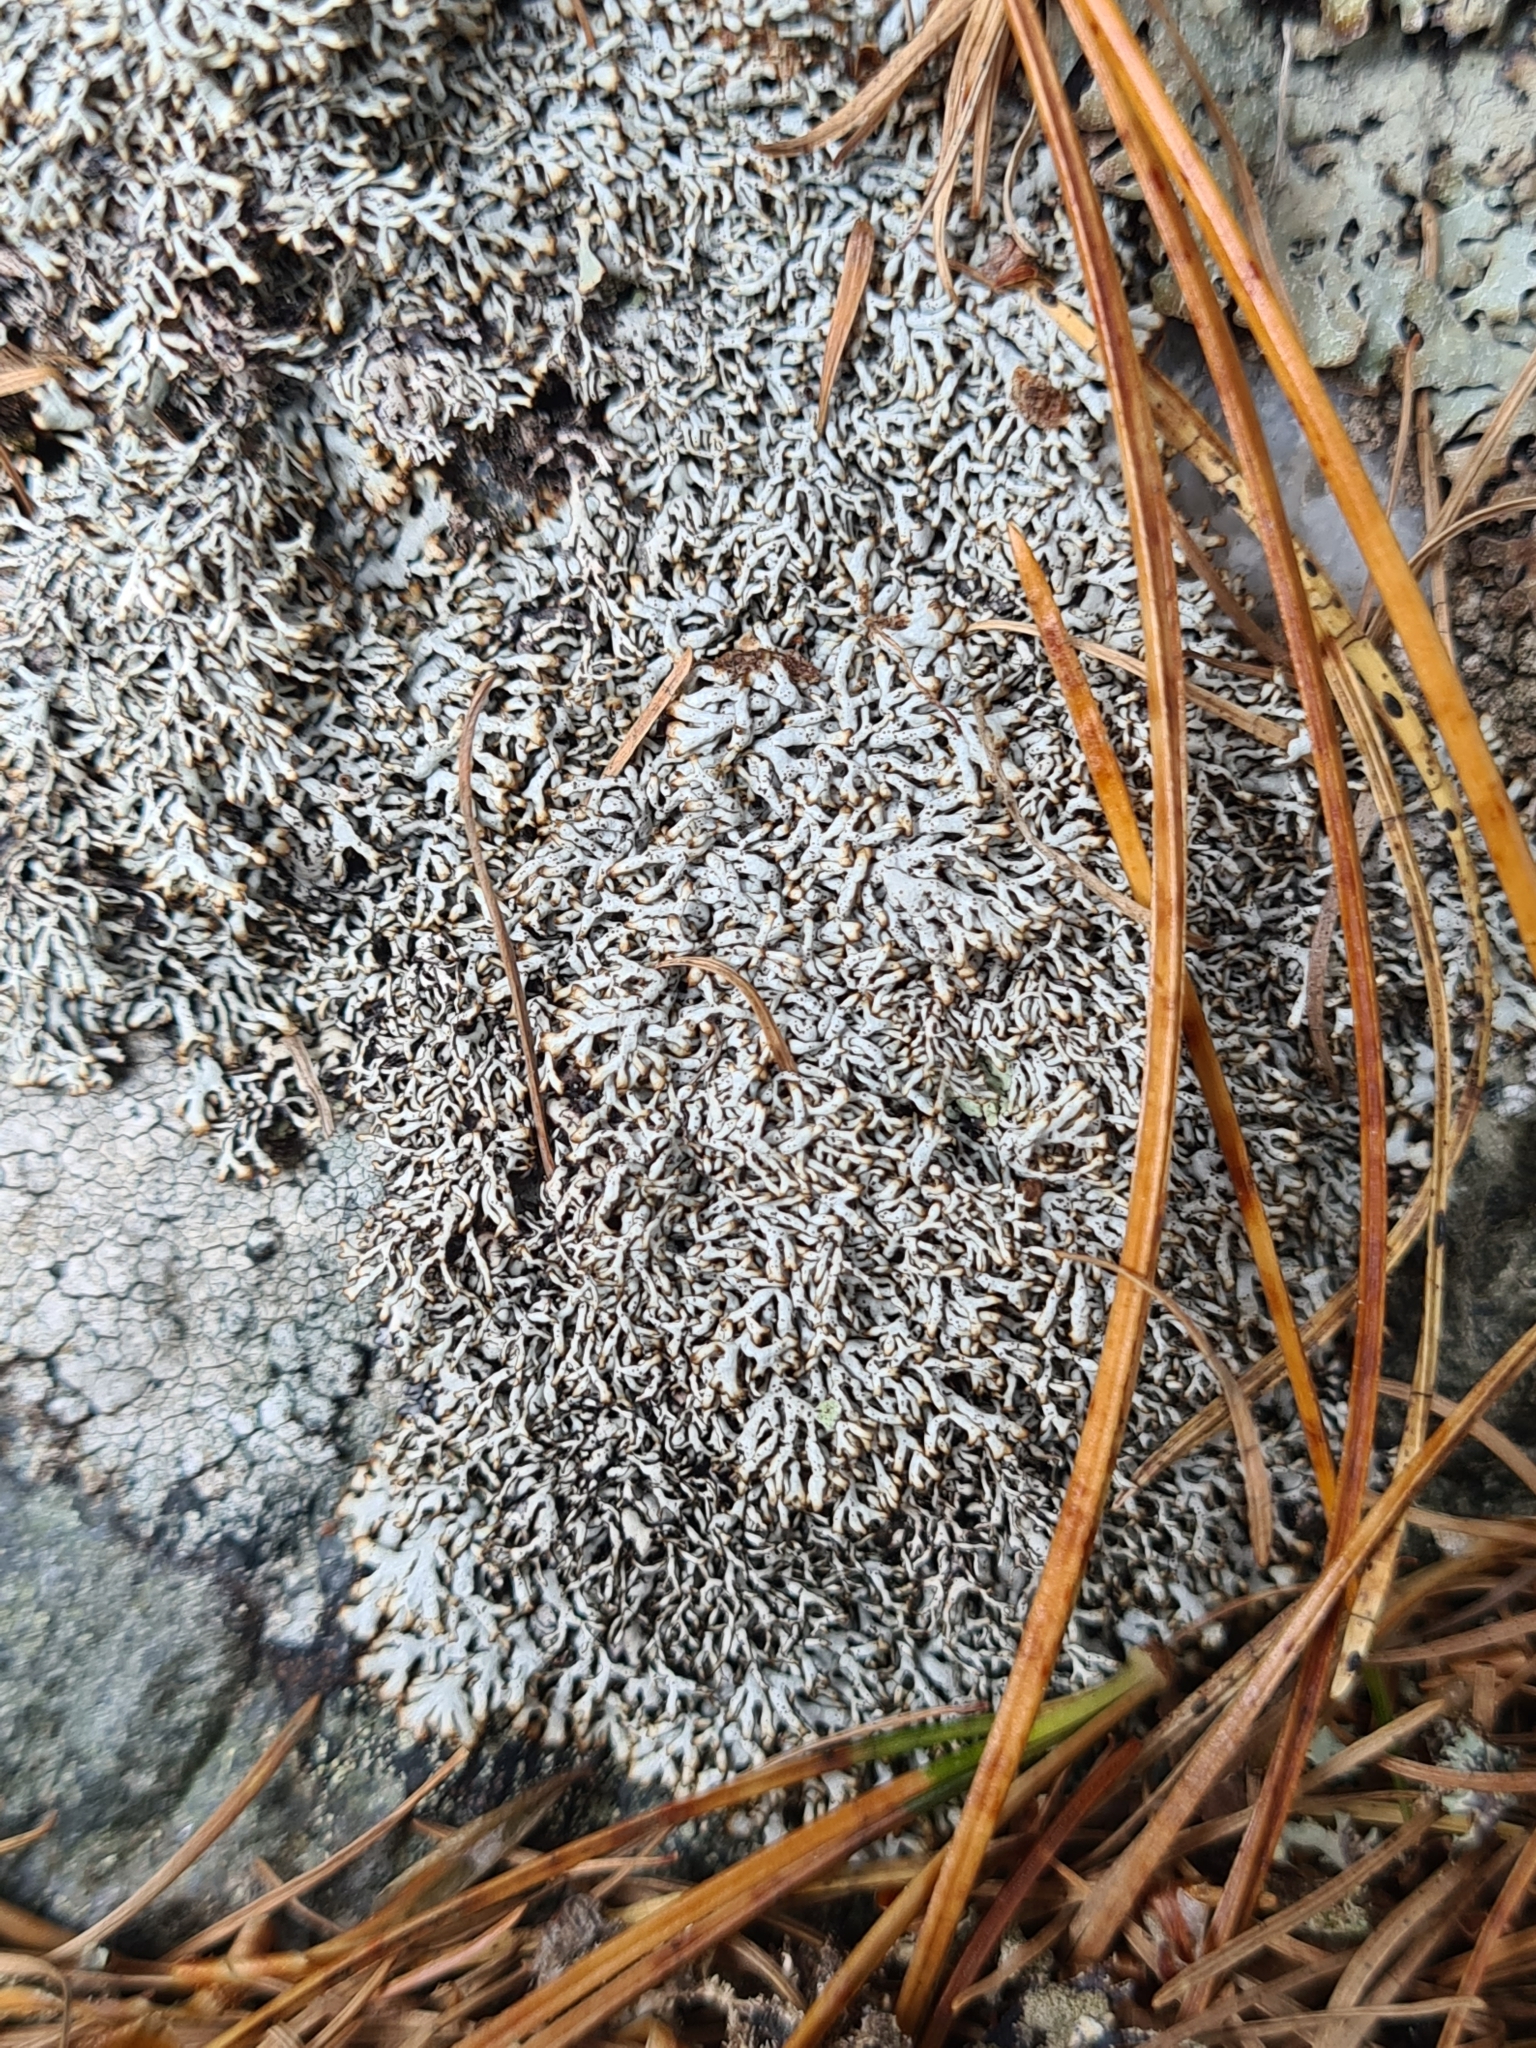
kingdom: Fungi
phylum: Ascomycota
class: Lecanoromycetes
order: Lecanorales
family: Parmeliaceae
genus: Brodoa
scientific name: Brodoa intestiniformis
